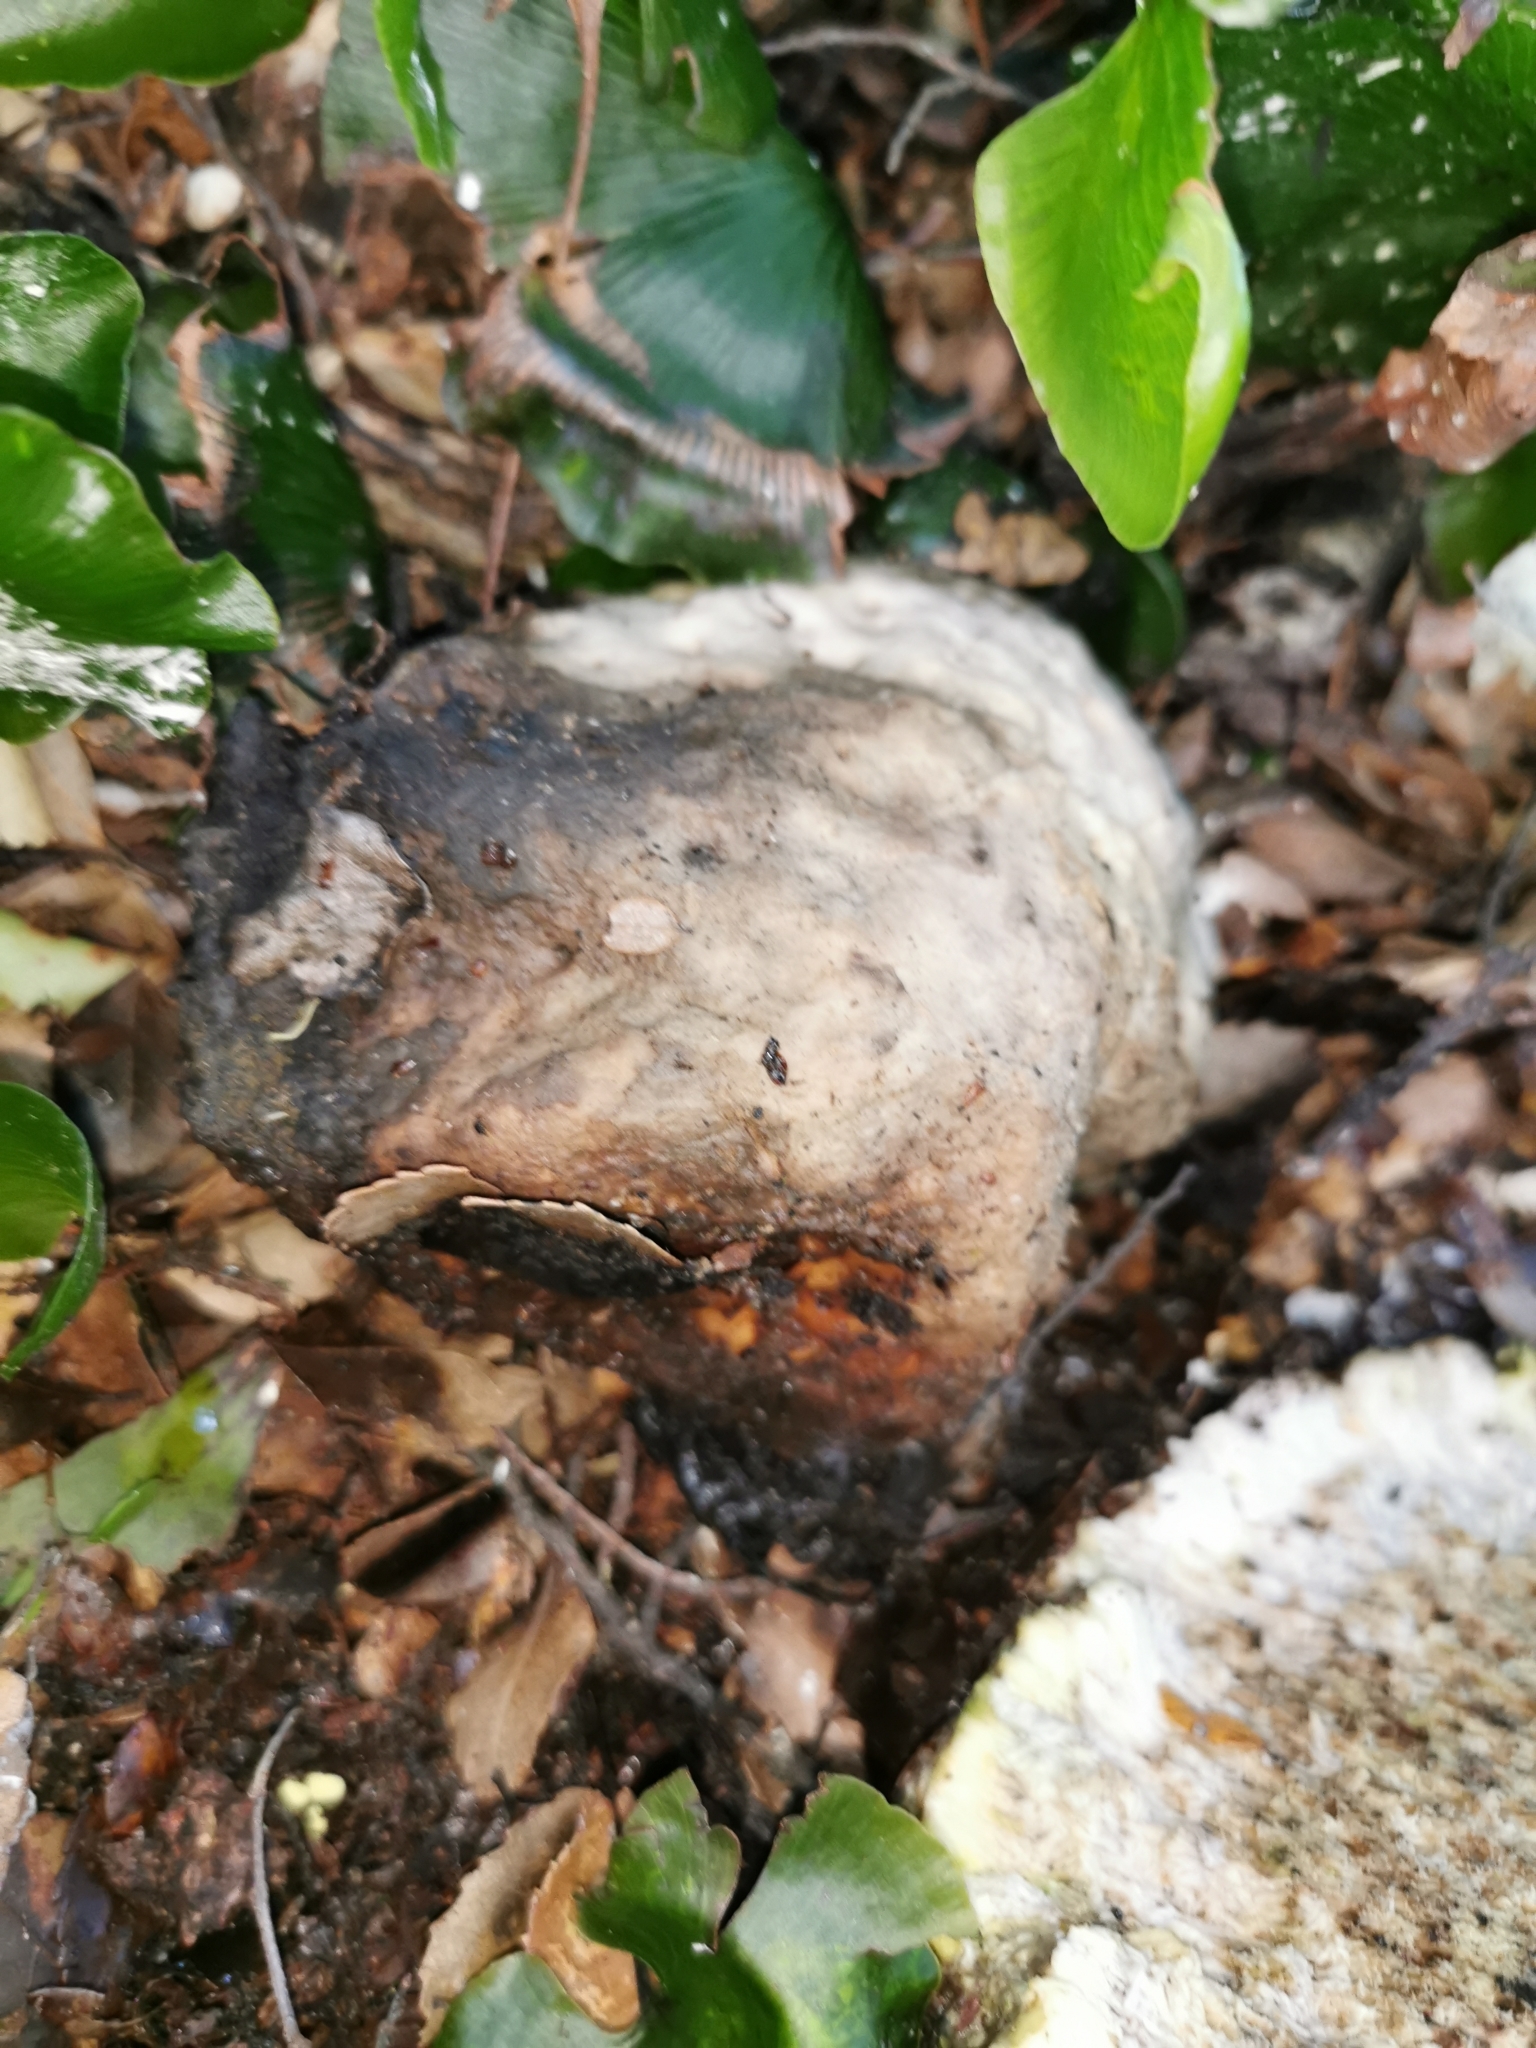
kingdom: Fungi
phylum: Basidiomycota
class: Agaricomycetes
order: Polyporales
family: Laetiporaceae
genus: Laetiporus
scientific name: Laetiporus portentosus
